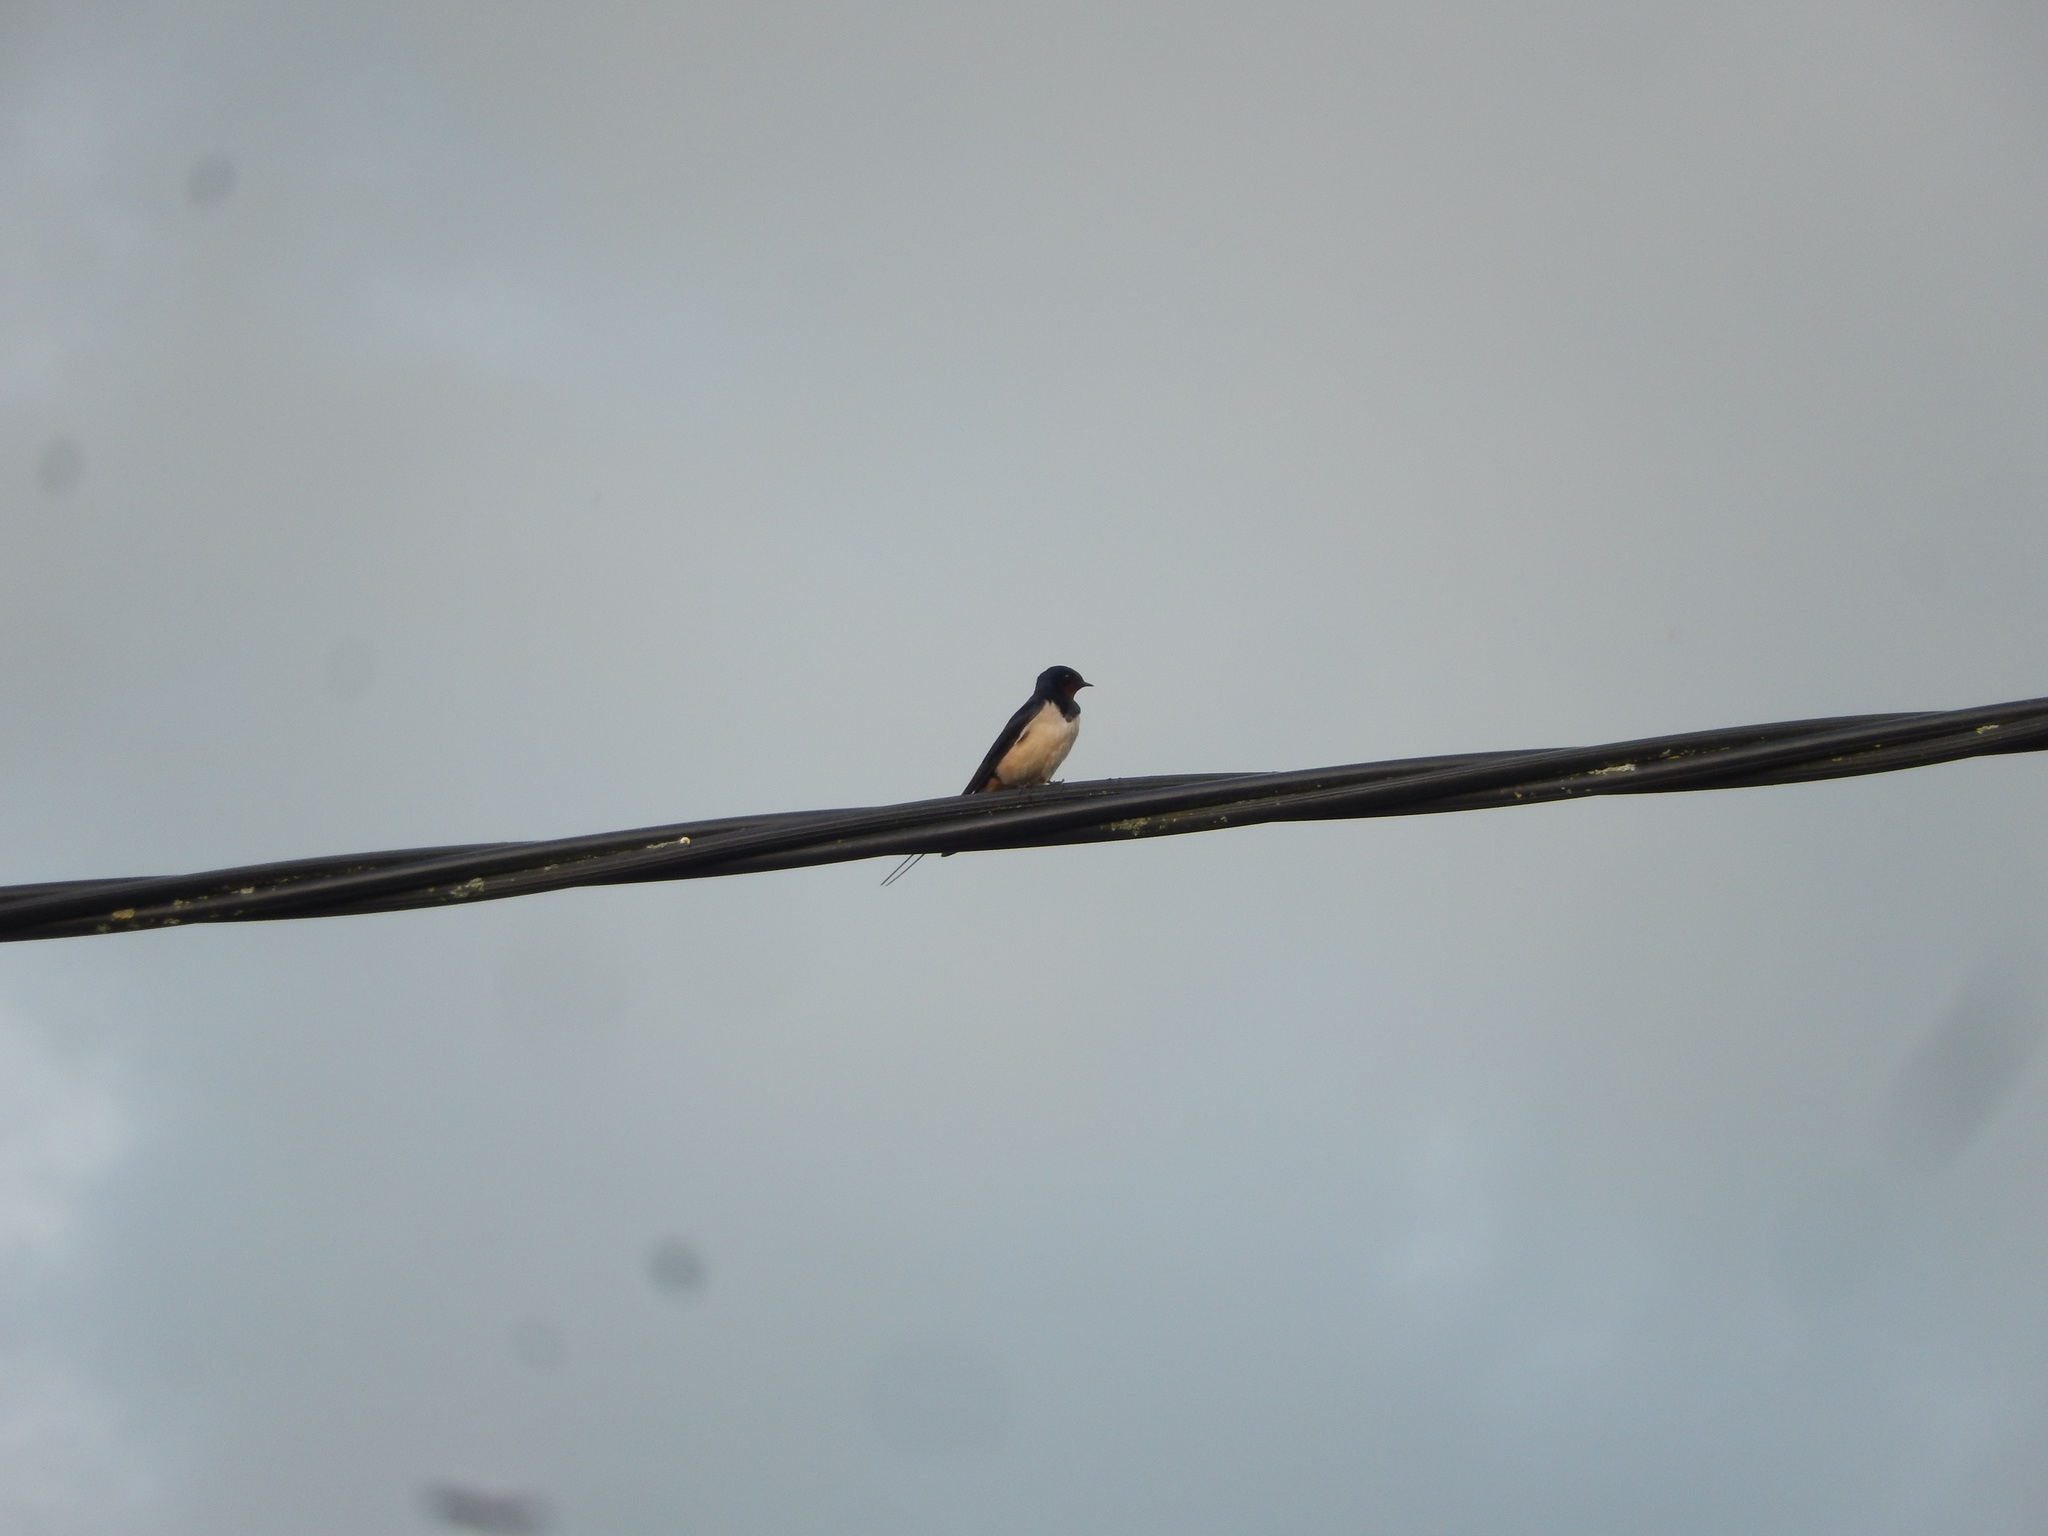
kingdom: Animalia
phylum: Chordata
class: Aves
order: Passeriformes
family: Hirundinidae
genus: Hirundo
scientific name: Hirundo rustica
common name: Barn swallow
